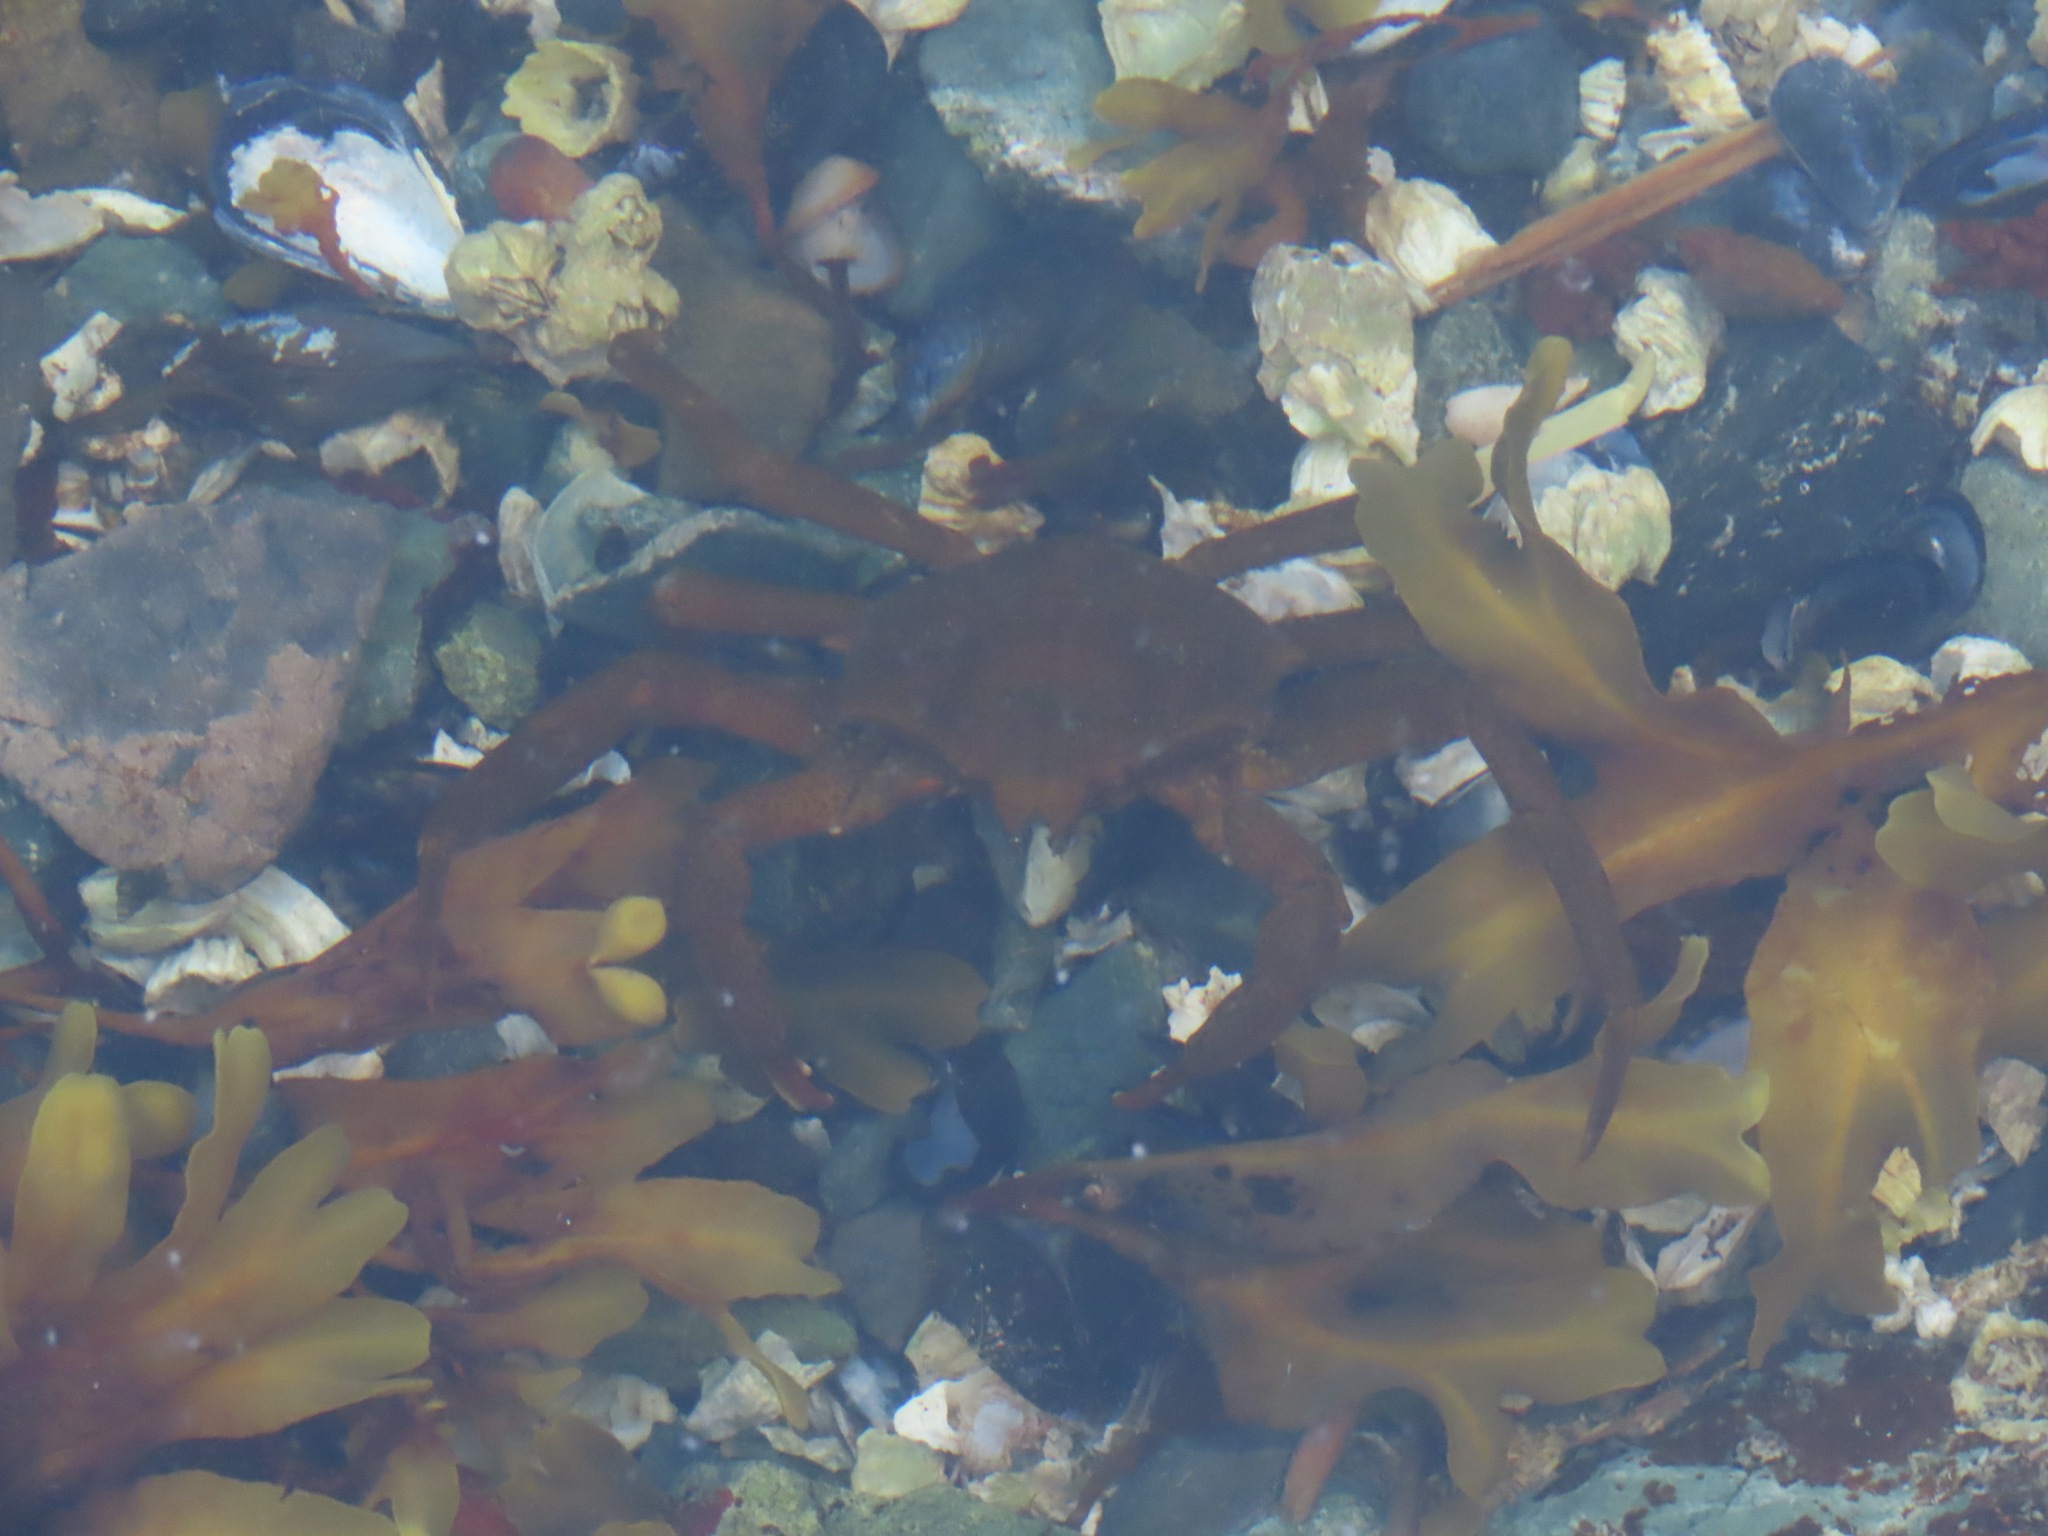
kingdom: Animalia
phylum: Arthropoda
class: Malacostraca
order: Decapoda
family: Epialtidae
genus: Pugettia
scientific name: Pugettia producta
